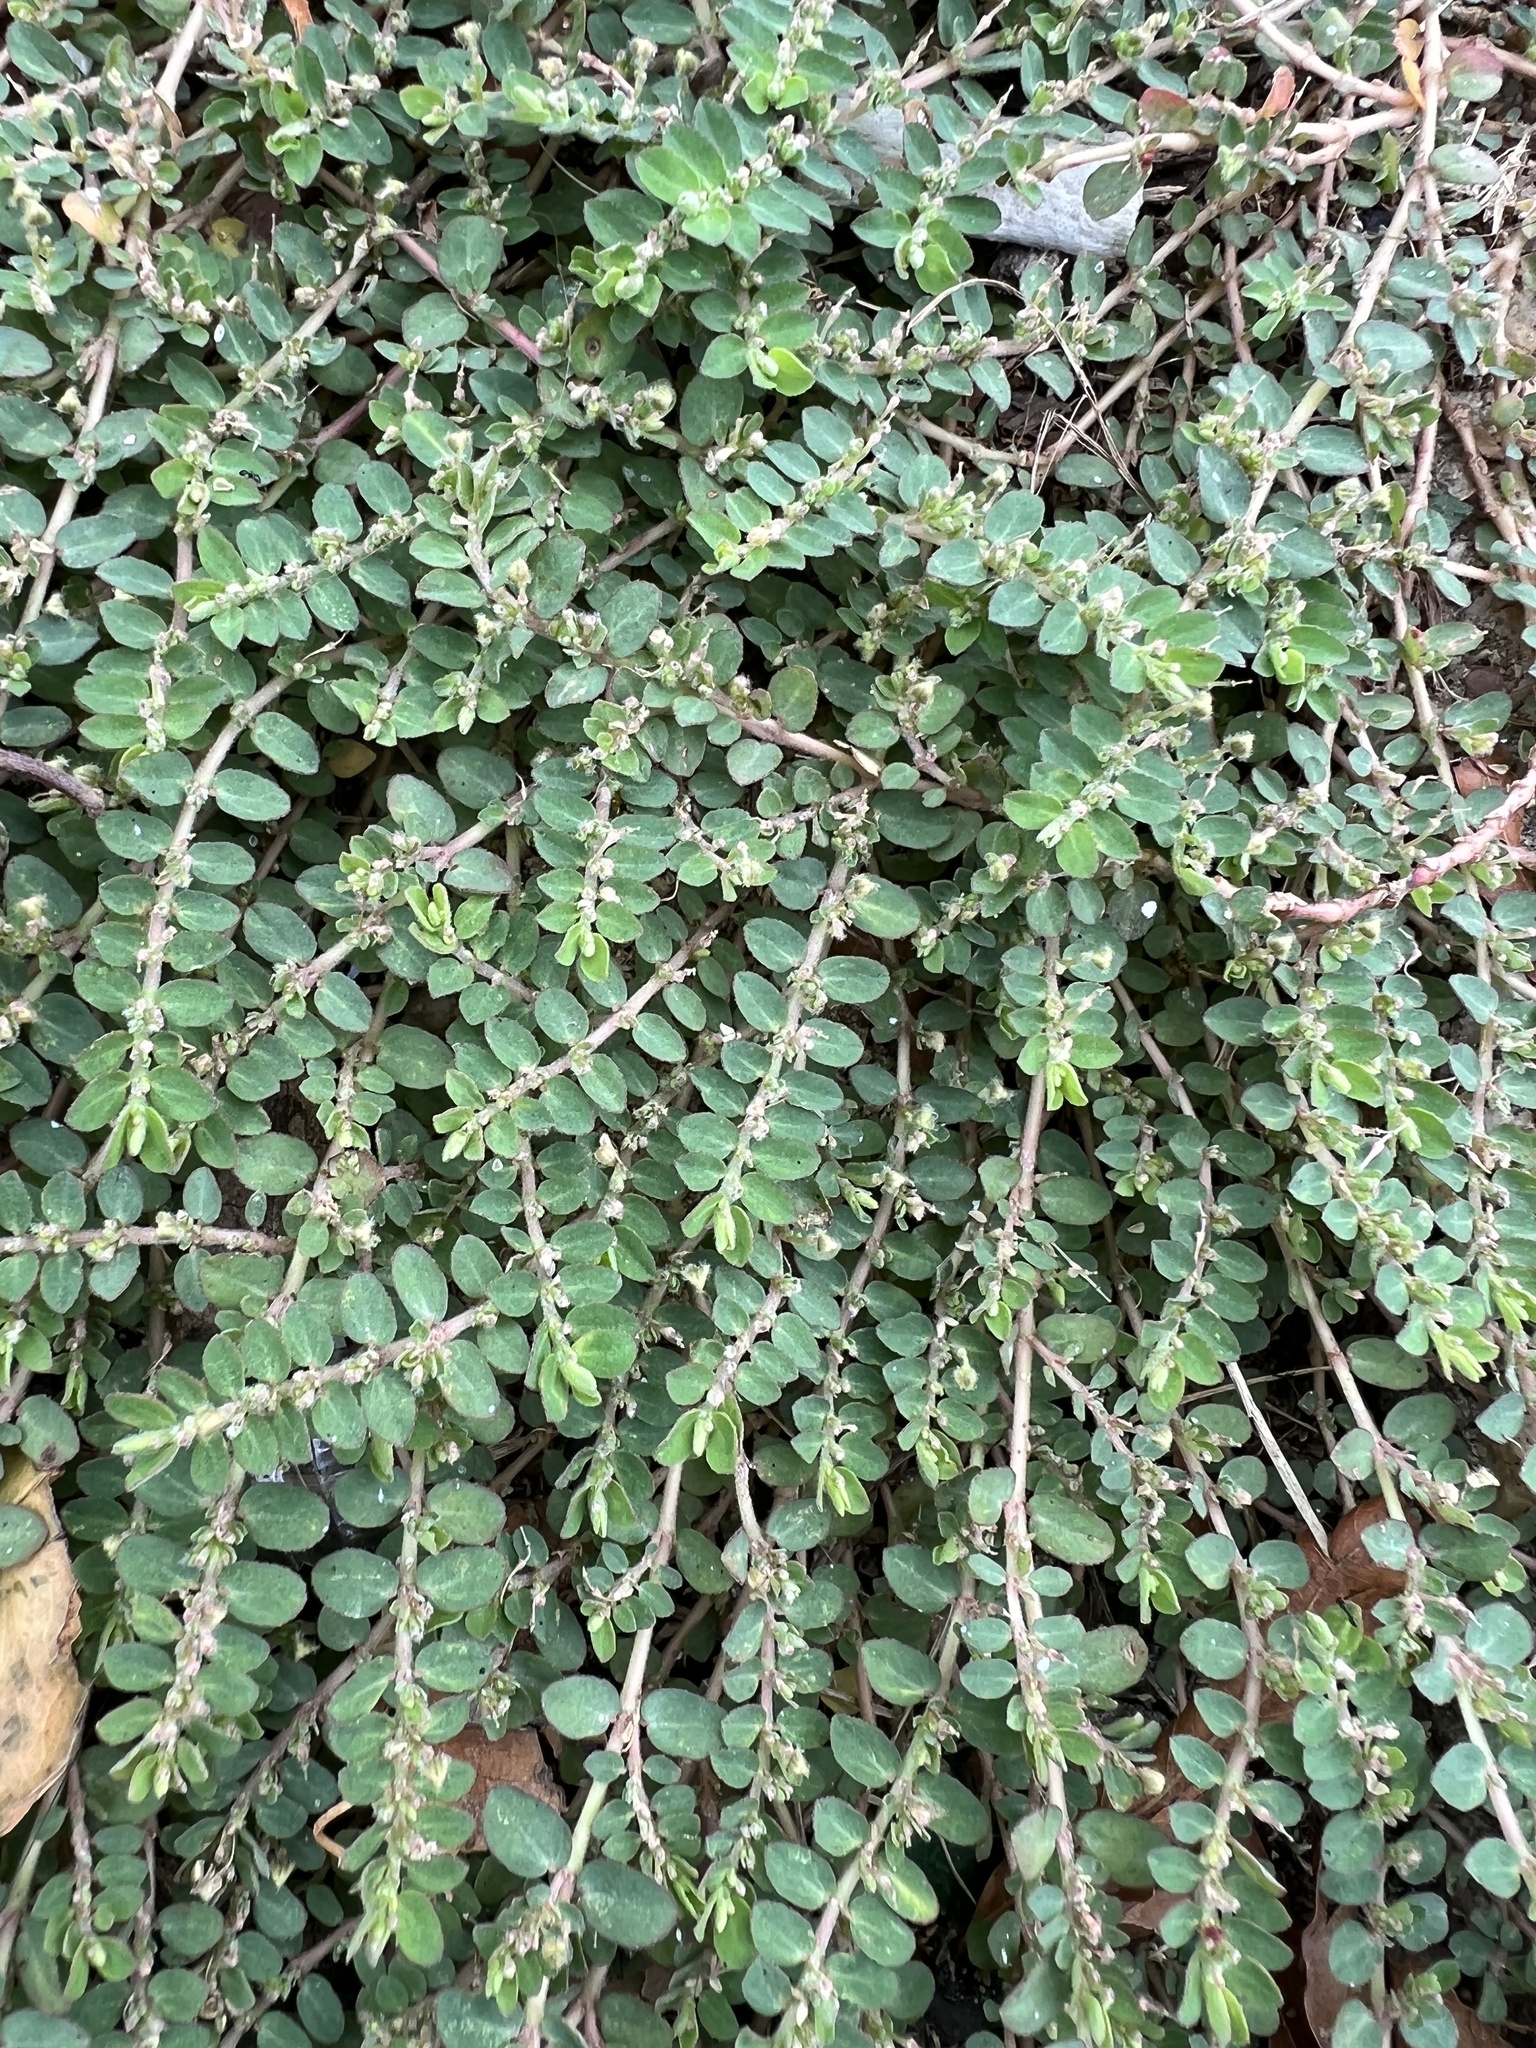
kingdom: Plantae
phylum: Tracheophyta
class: Magnoliopsida
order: Malpighiales
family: Euphorbiaceae
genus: Euphorbia
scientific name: Euphorbia prostrata
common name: Prostrate sandmat
